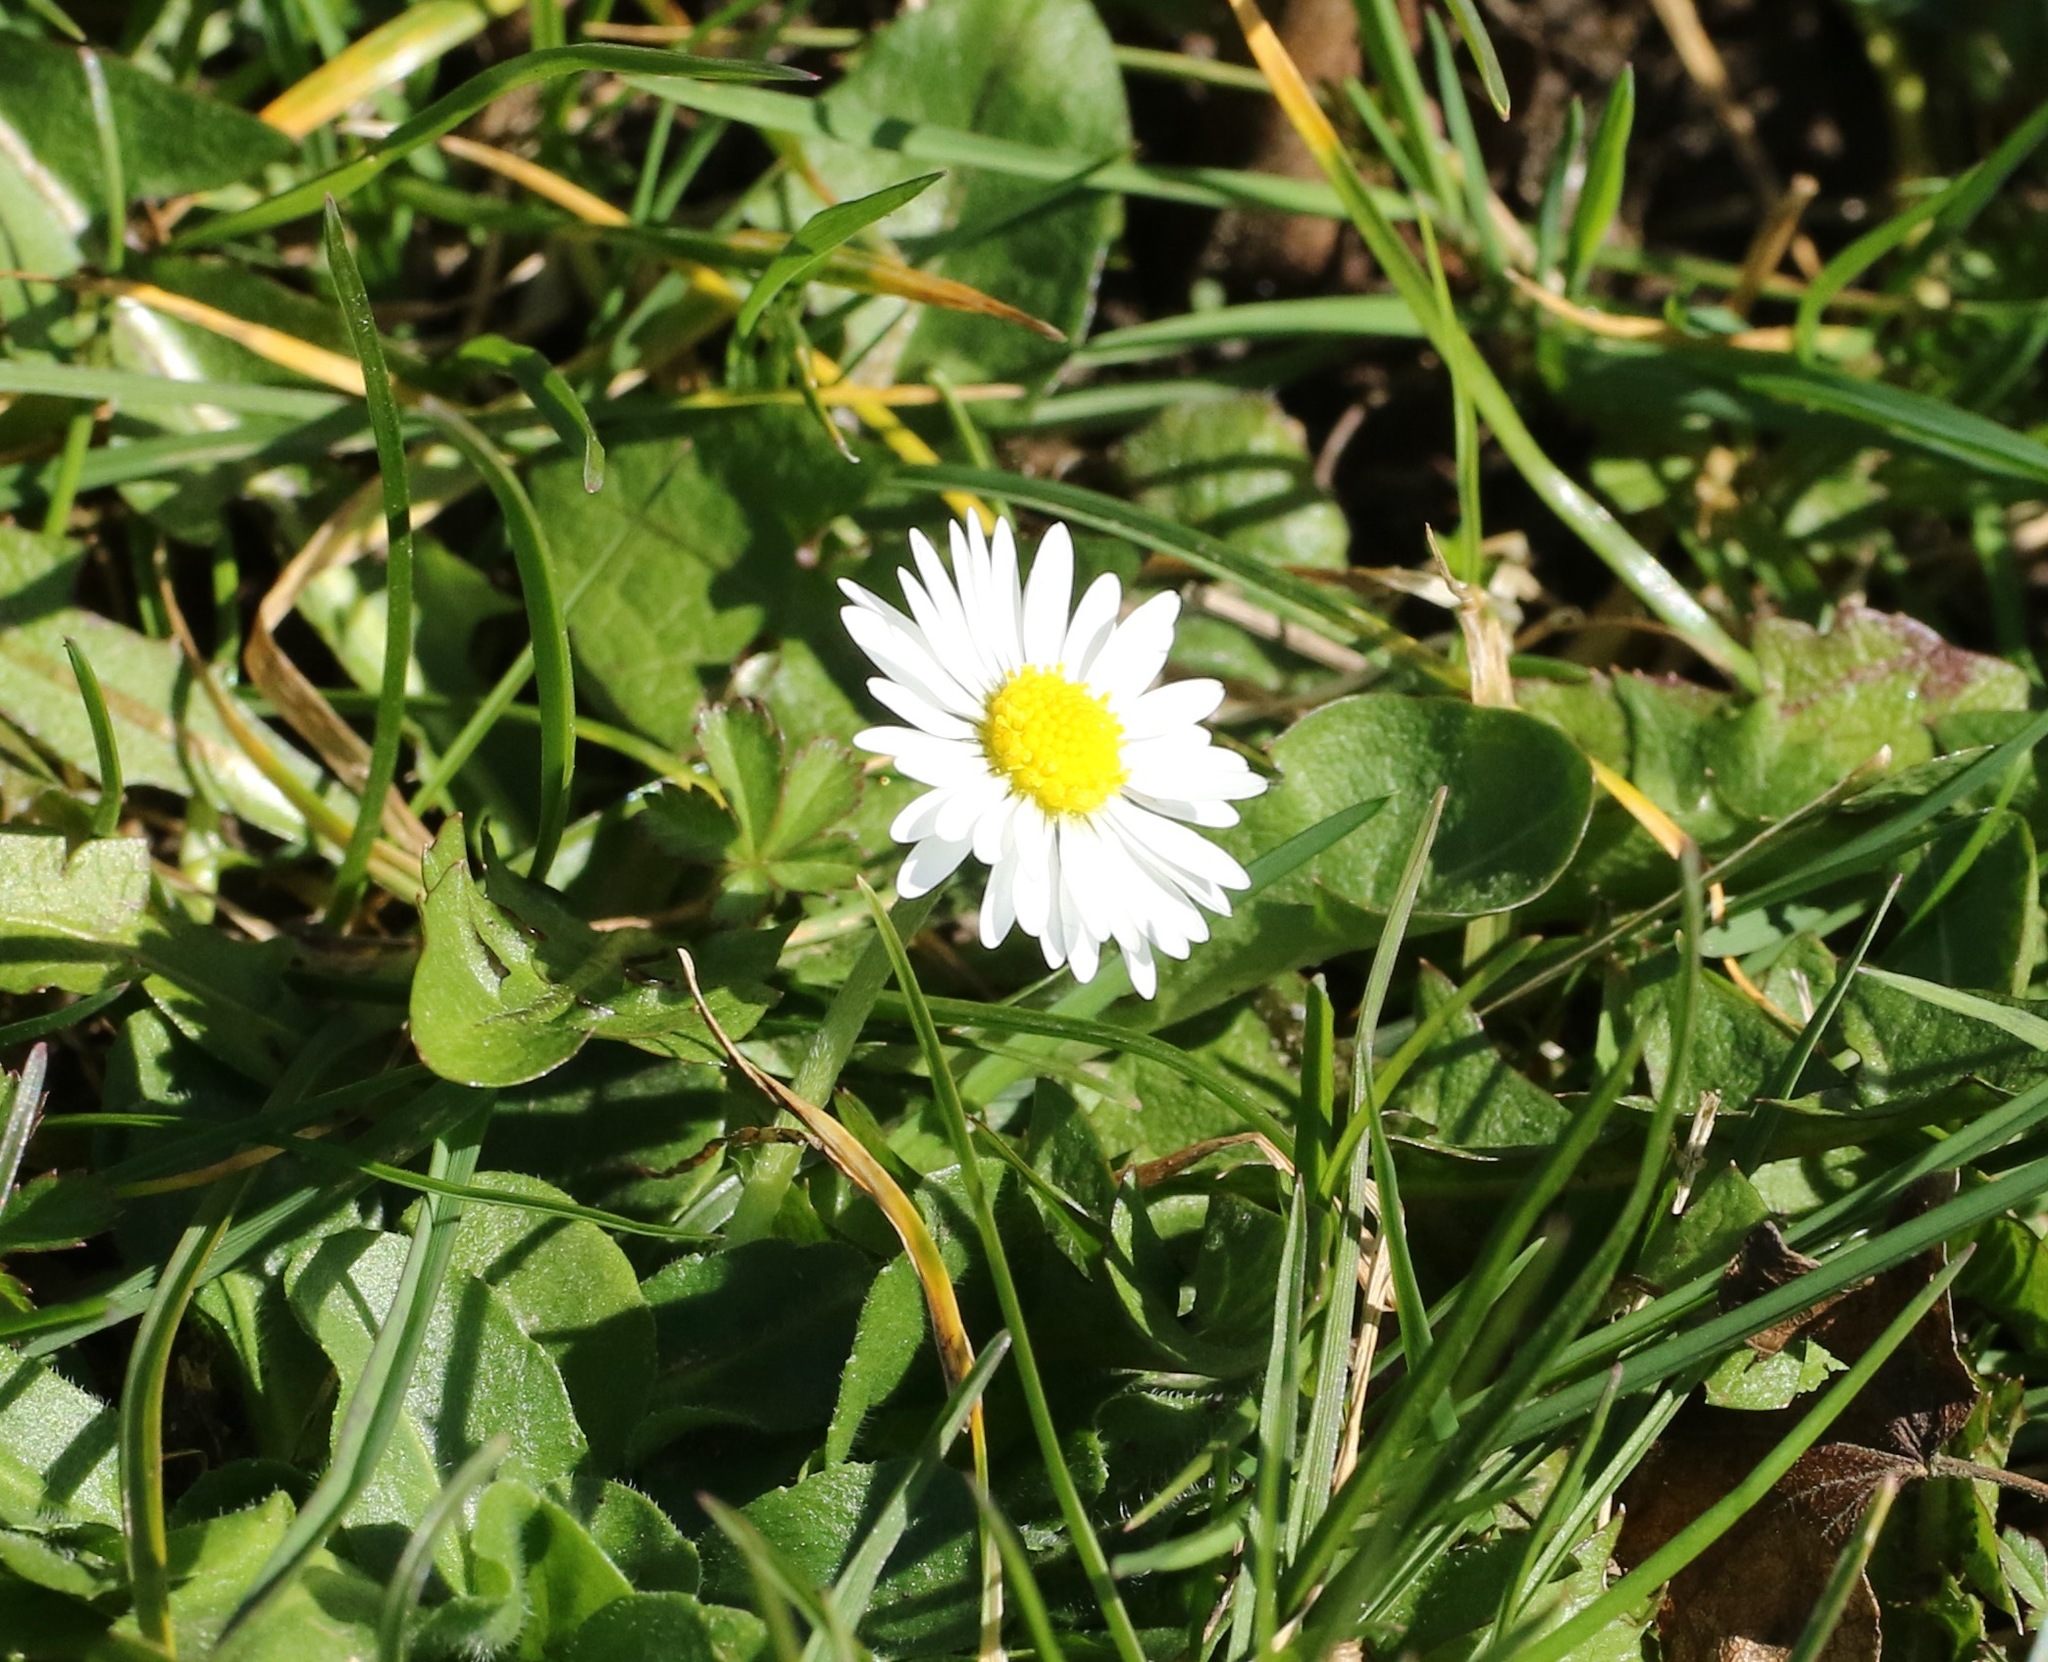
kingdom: Plantae
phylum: Tracheophyta
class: Magnoliopsida
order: Asterales
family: Asteraceae
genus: Bellis
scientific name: Bellis perennis
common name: Lawndaisy
